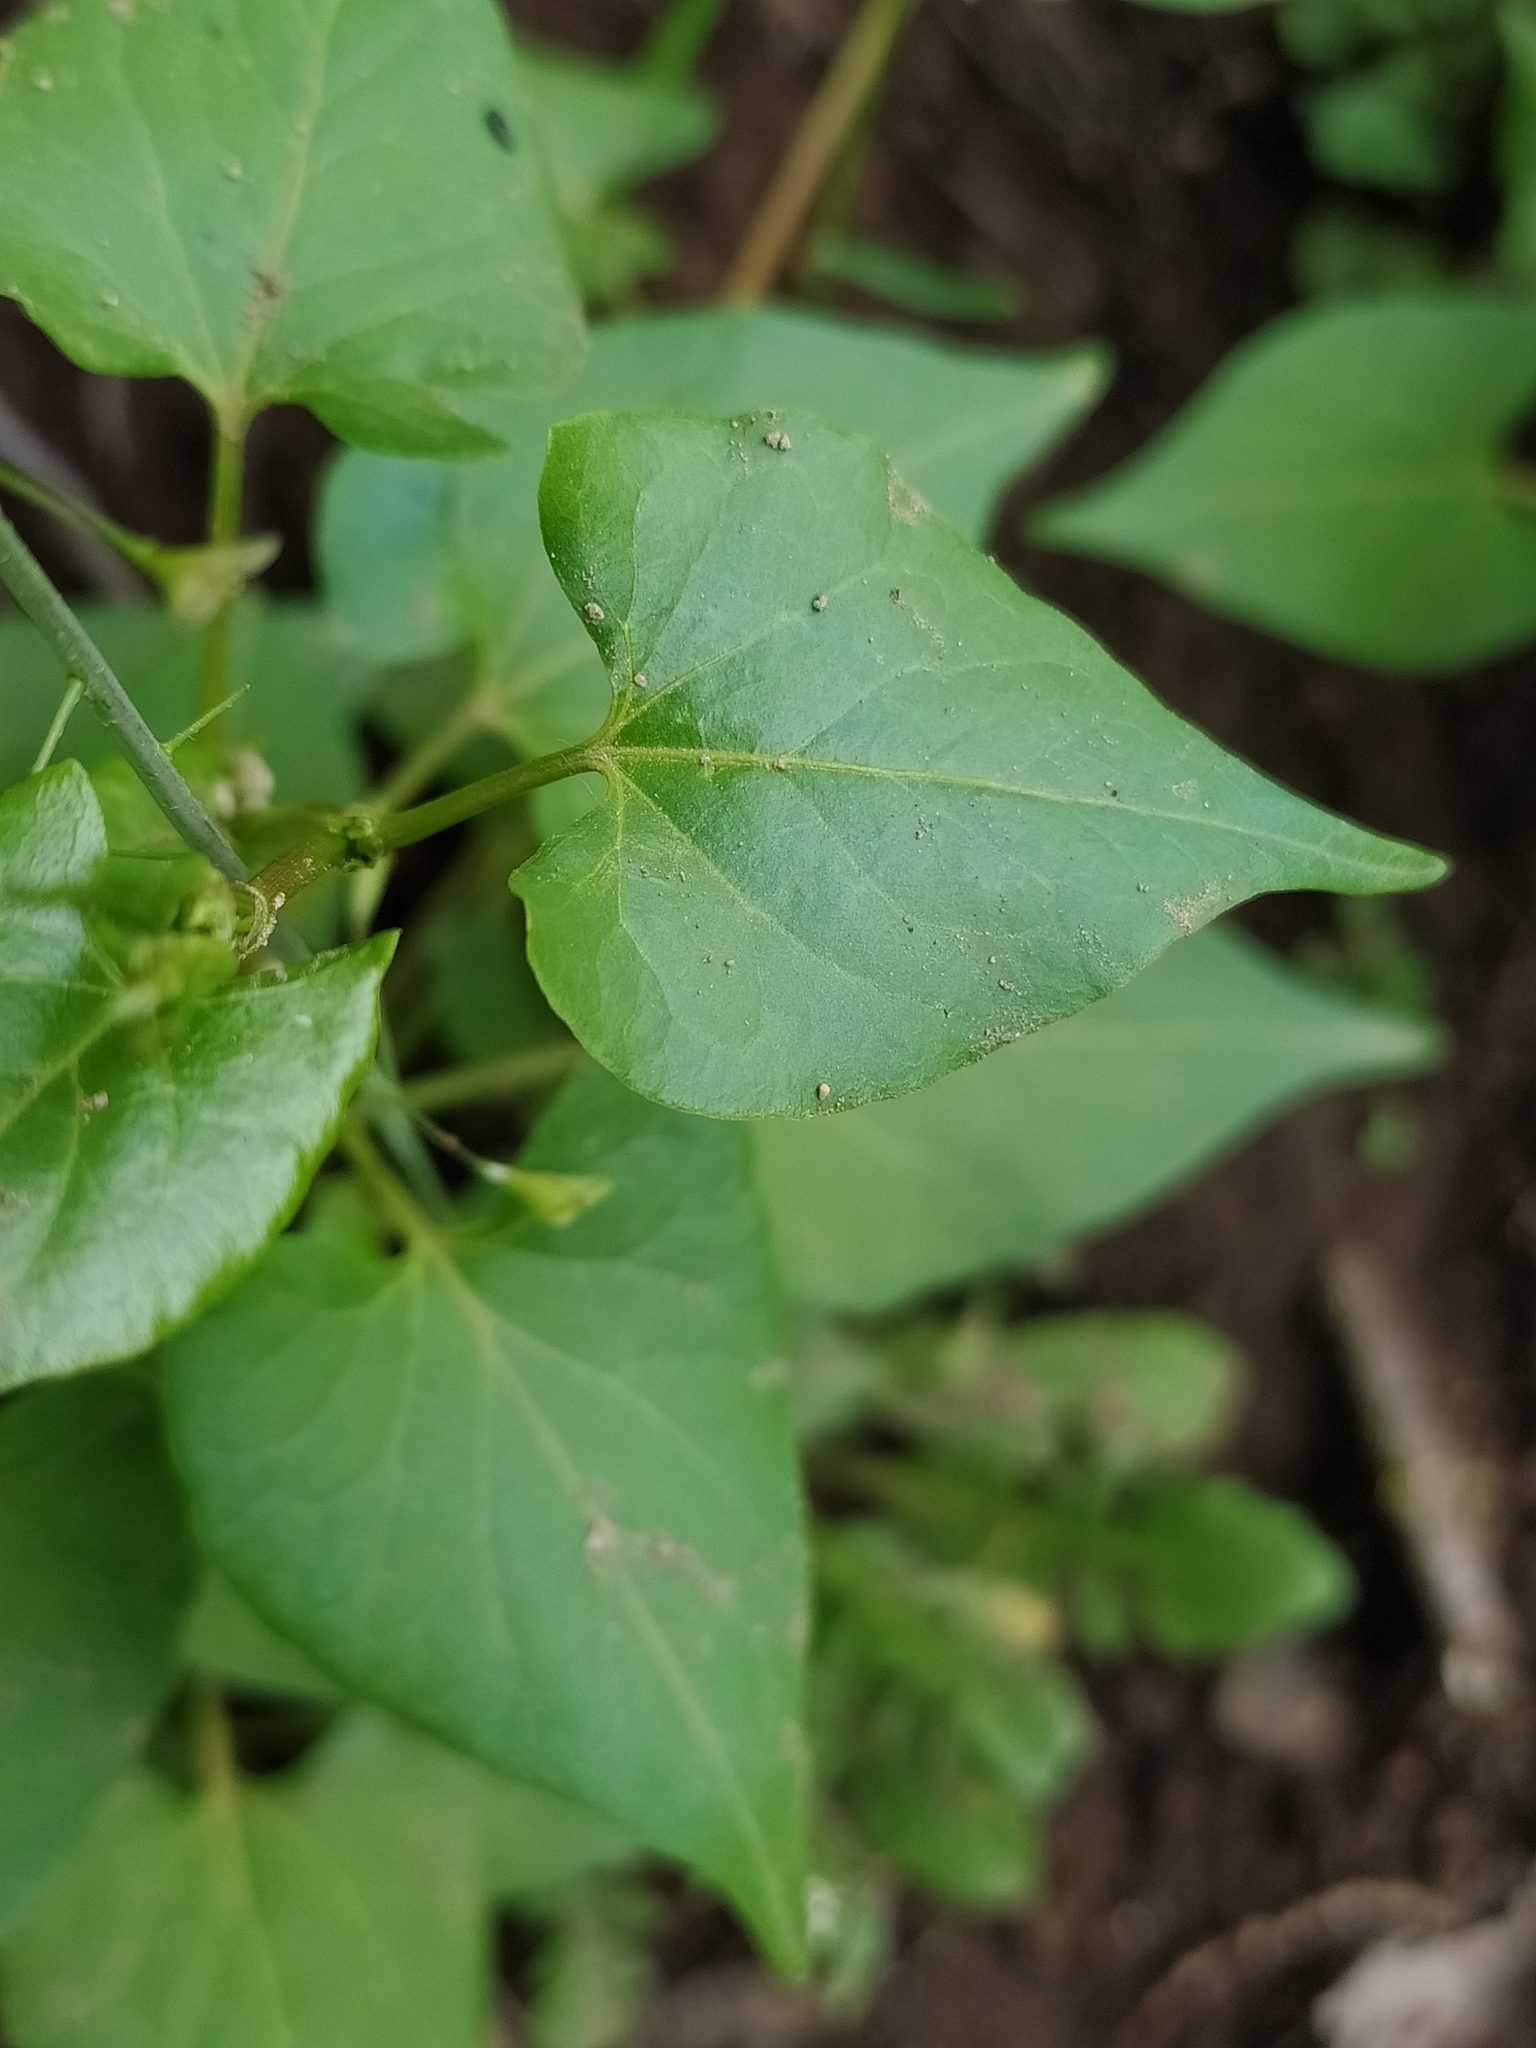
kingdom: Plantae
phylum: Tracheophyta
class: Magnoliopsida
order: Brassicales
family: Brassicaceae
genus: Capsella
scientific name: Capsella bursa-pastoris
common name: Shepherd's purse
